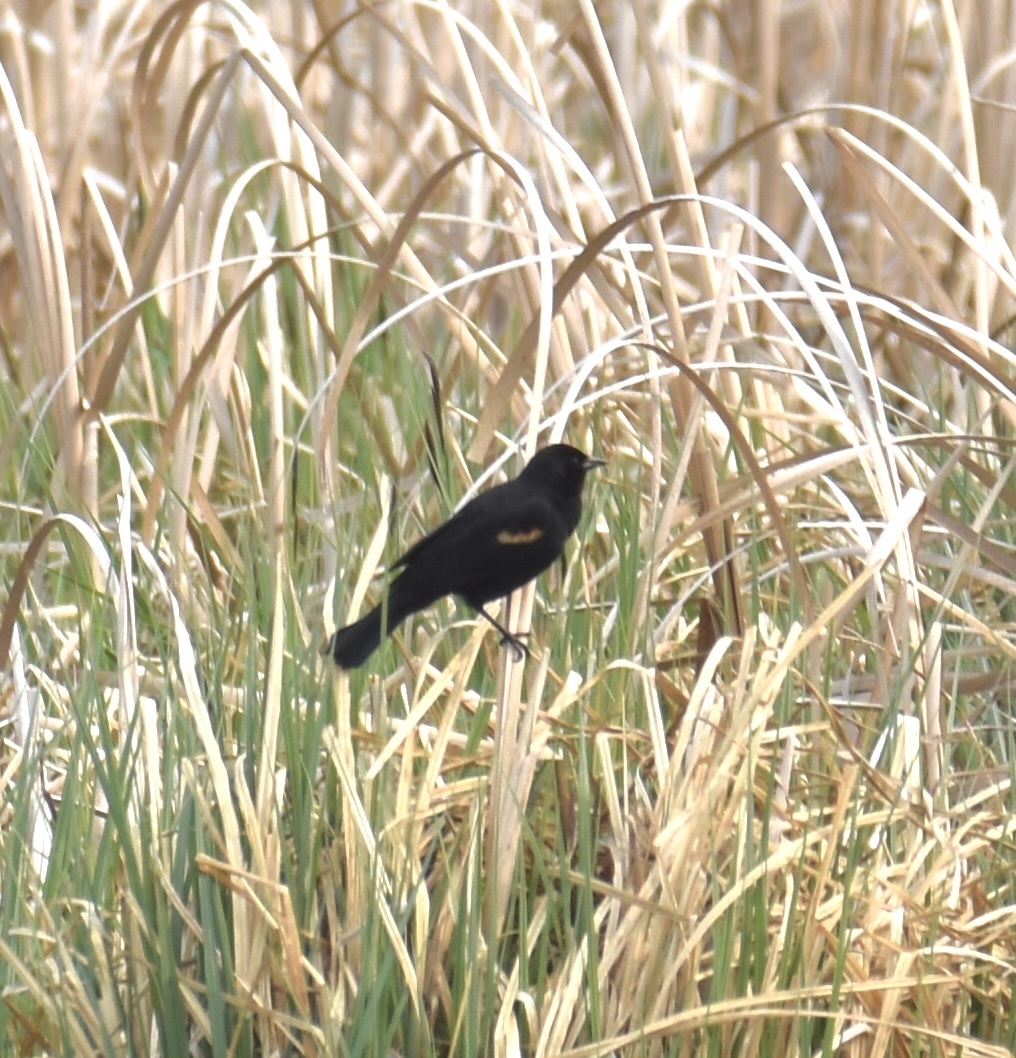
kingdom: Animalia
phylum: Chordata
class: Aves
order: Passeriformes
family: Icteridae
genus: Agelaius
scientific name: Agelaius phoeniceus
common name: Red-winged blackbird
